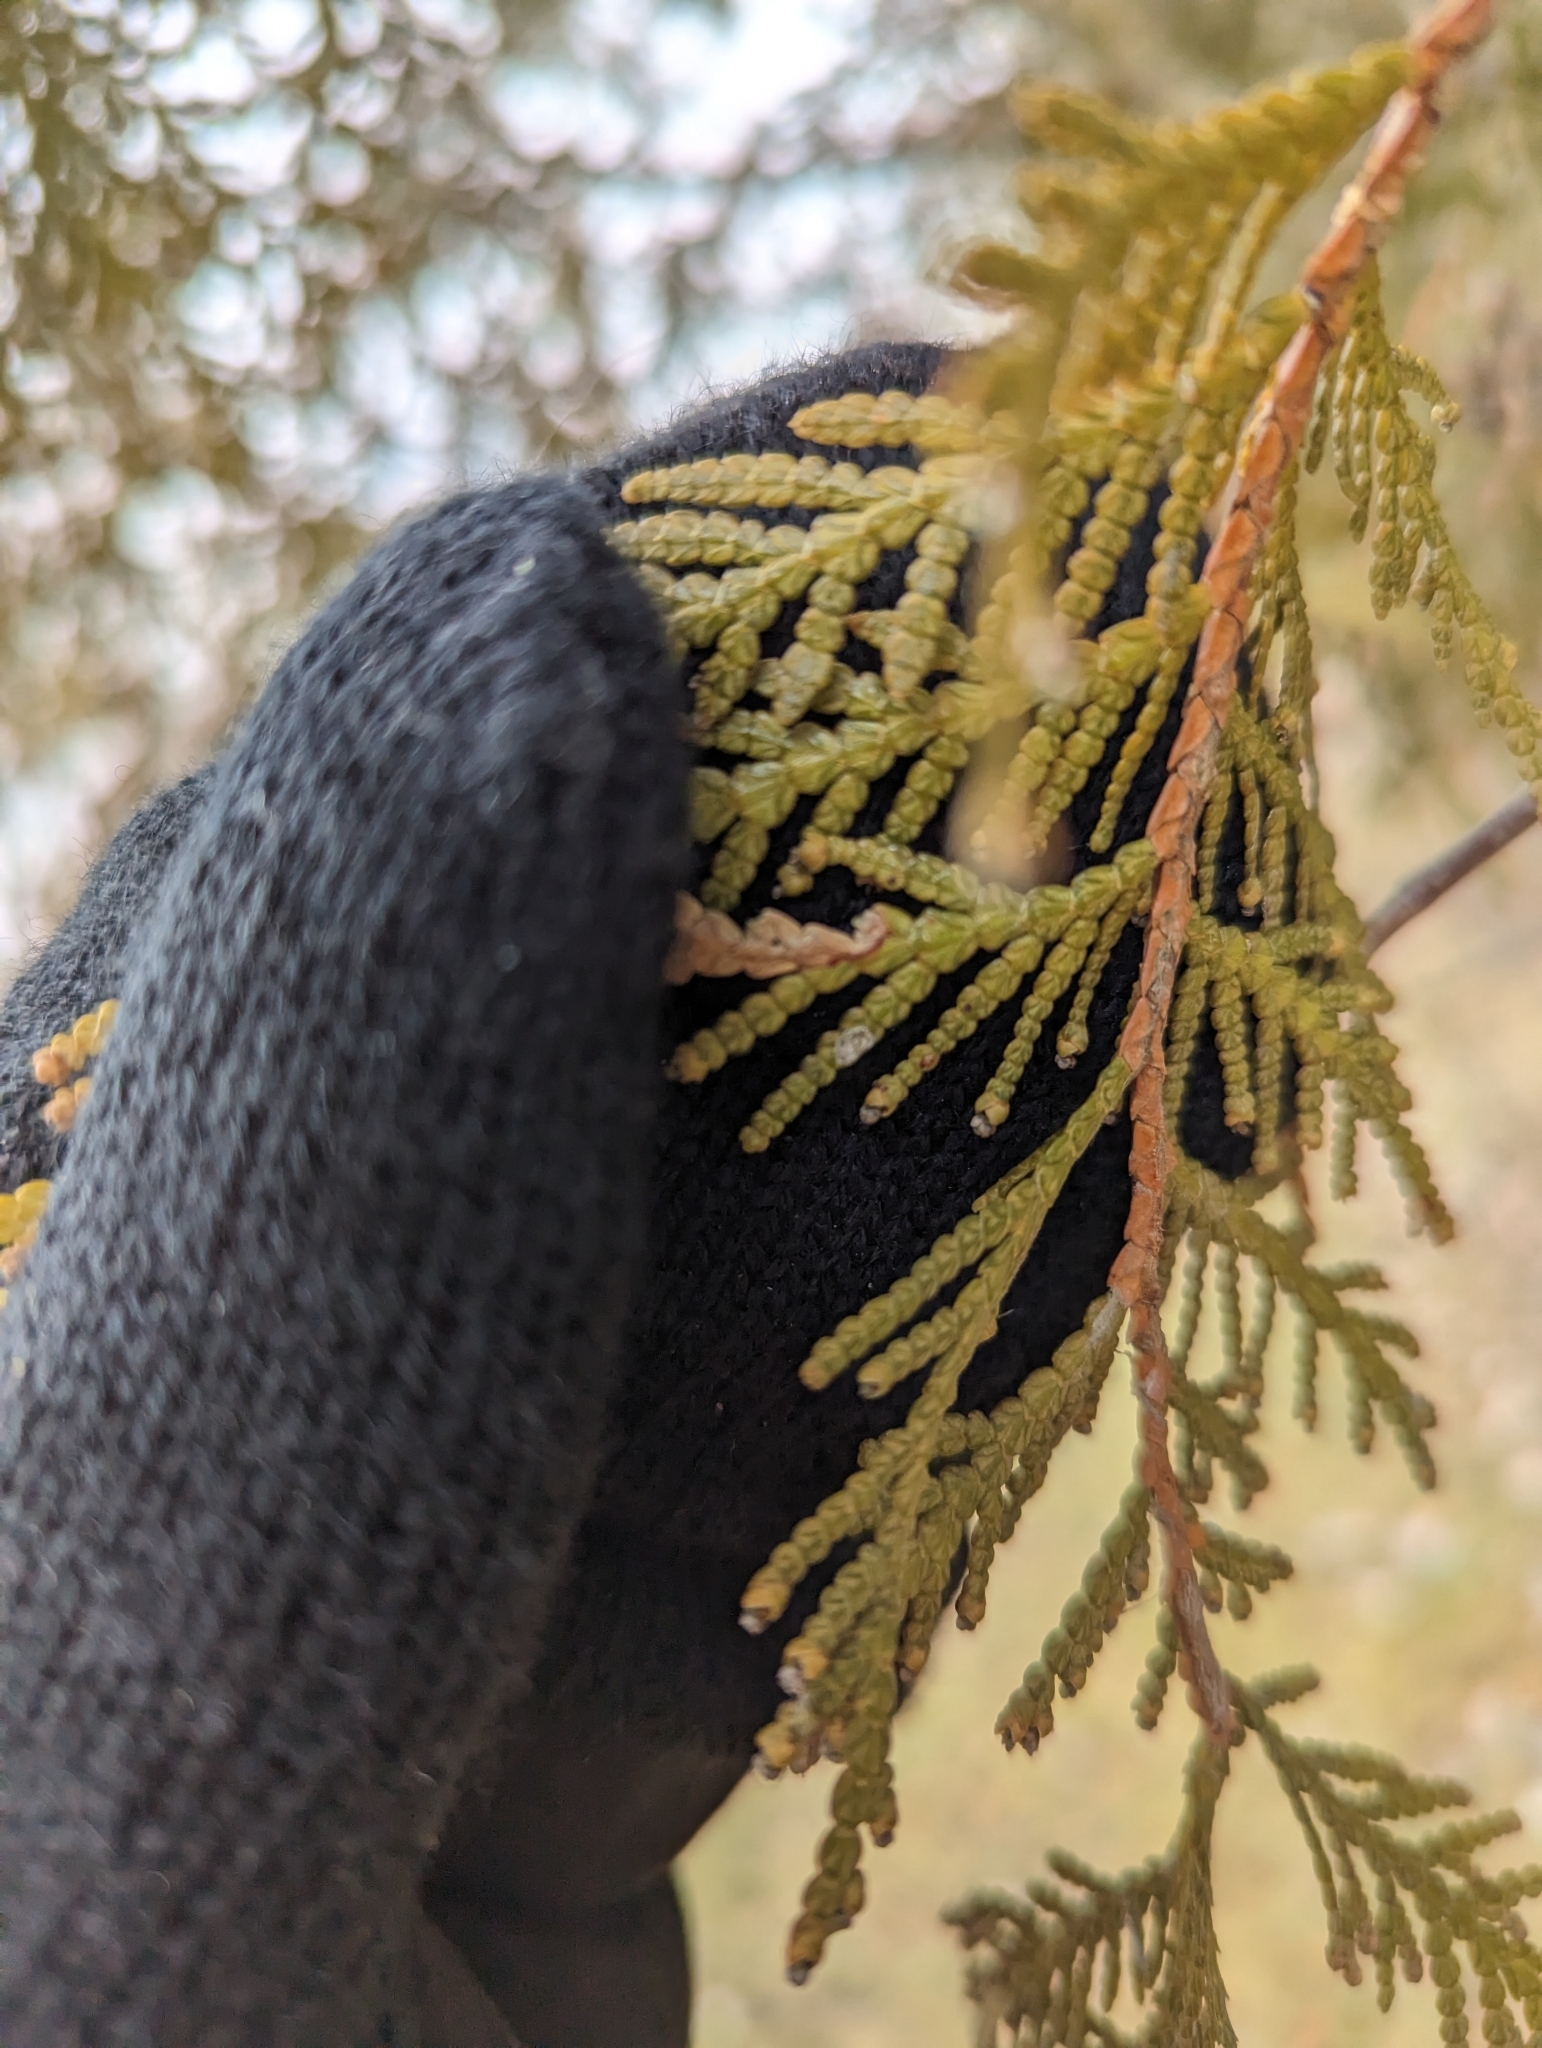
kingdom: Animalia
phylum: Arthropoda
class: Insecta
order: Lepidoptera
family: Argyresthiidae
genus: Argyresthia
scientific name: Argyresthia thuiella
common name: Arborvitae leafminer
